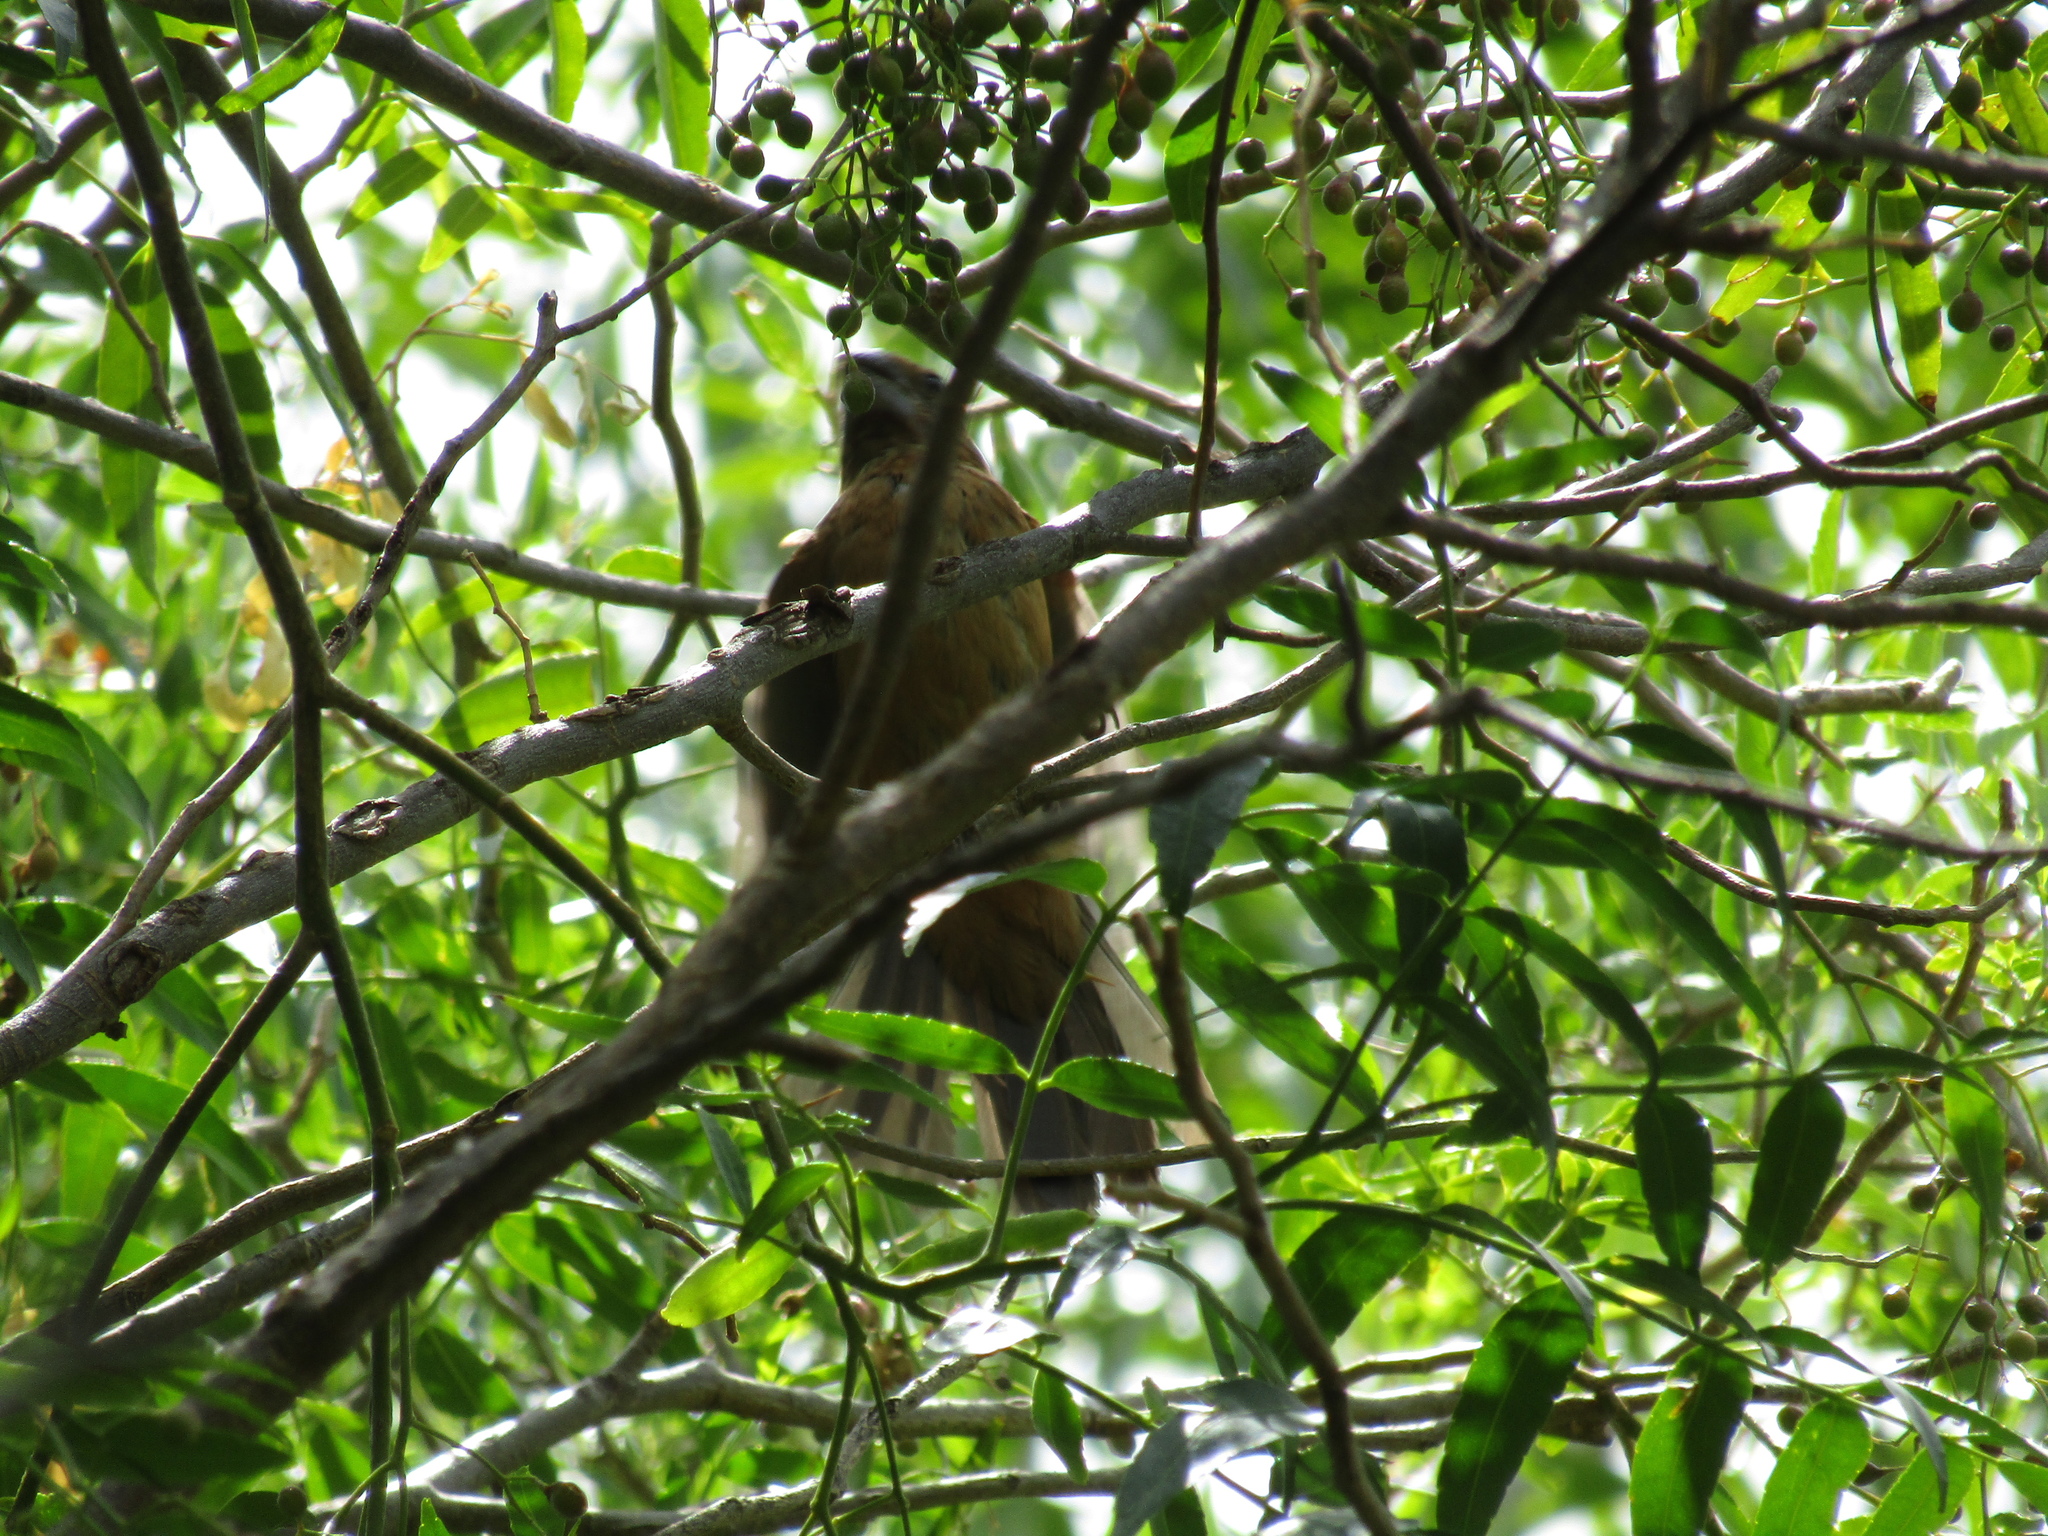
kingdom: Animalia
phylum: Chordata
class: Aves
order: Passeriformes
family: Cardinalidae
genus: Cyanoloxia
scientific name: Cyanoloxia brissonii
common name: Ultramarine grosbeak
